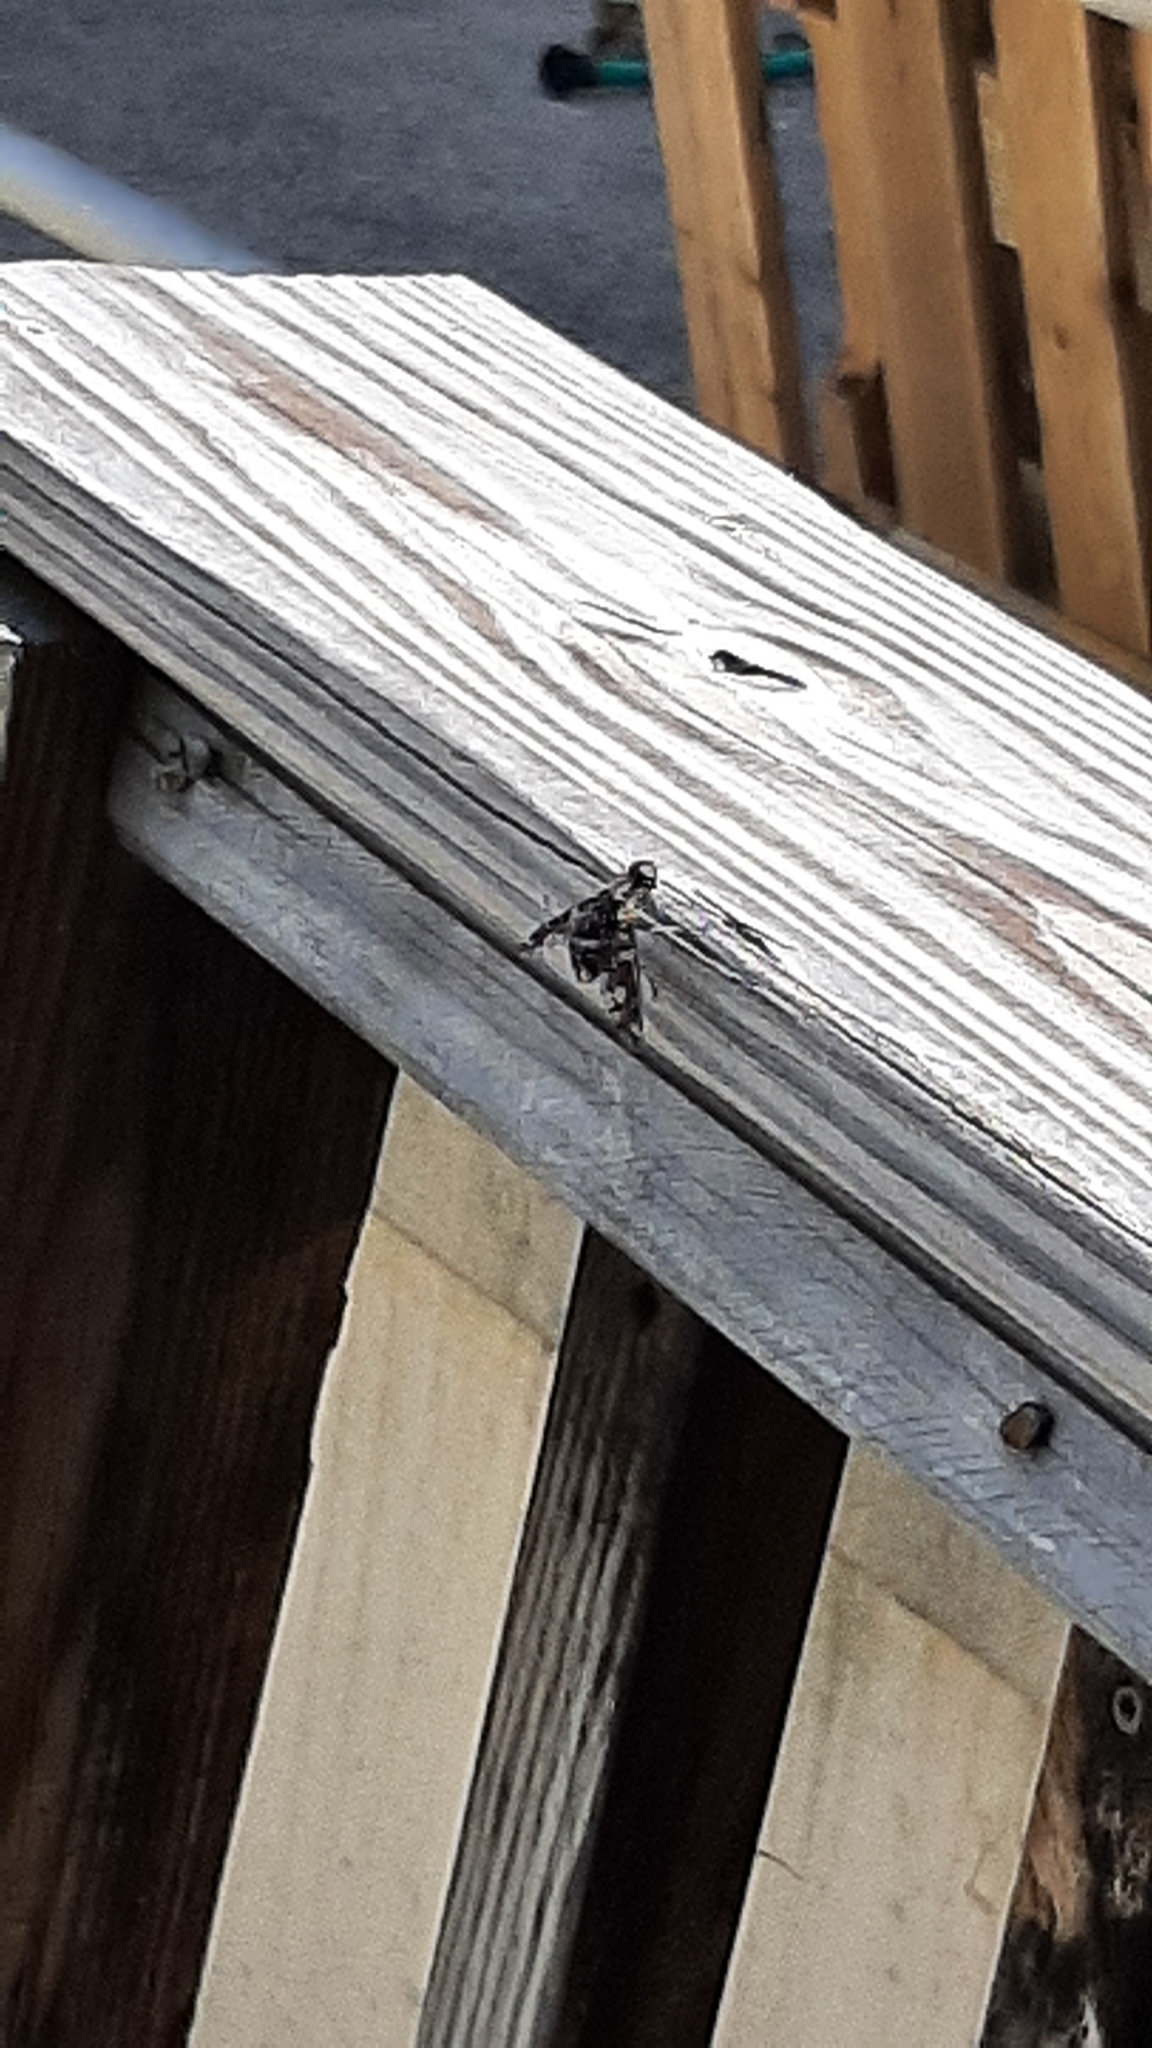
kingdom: Animalia
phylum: Arthropoda
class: Insecta
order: Diptera
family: Bombyliidae
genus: Xenox
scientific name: Xenox tigrinus
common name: Tiger bee fly
